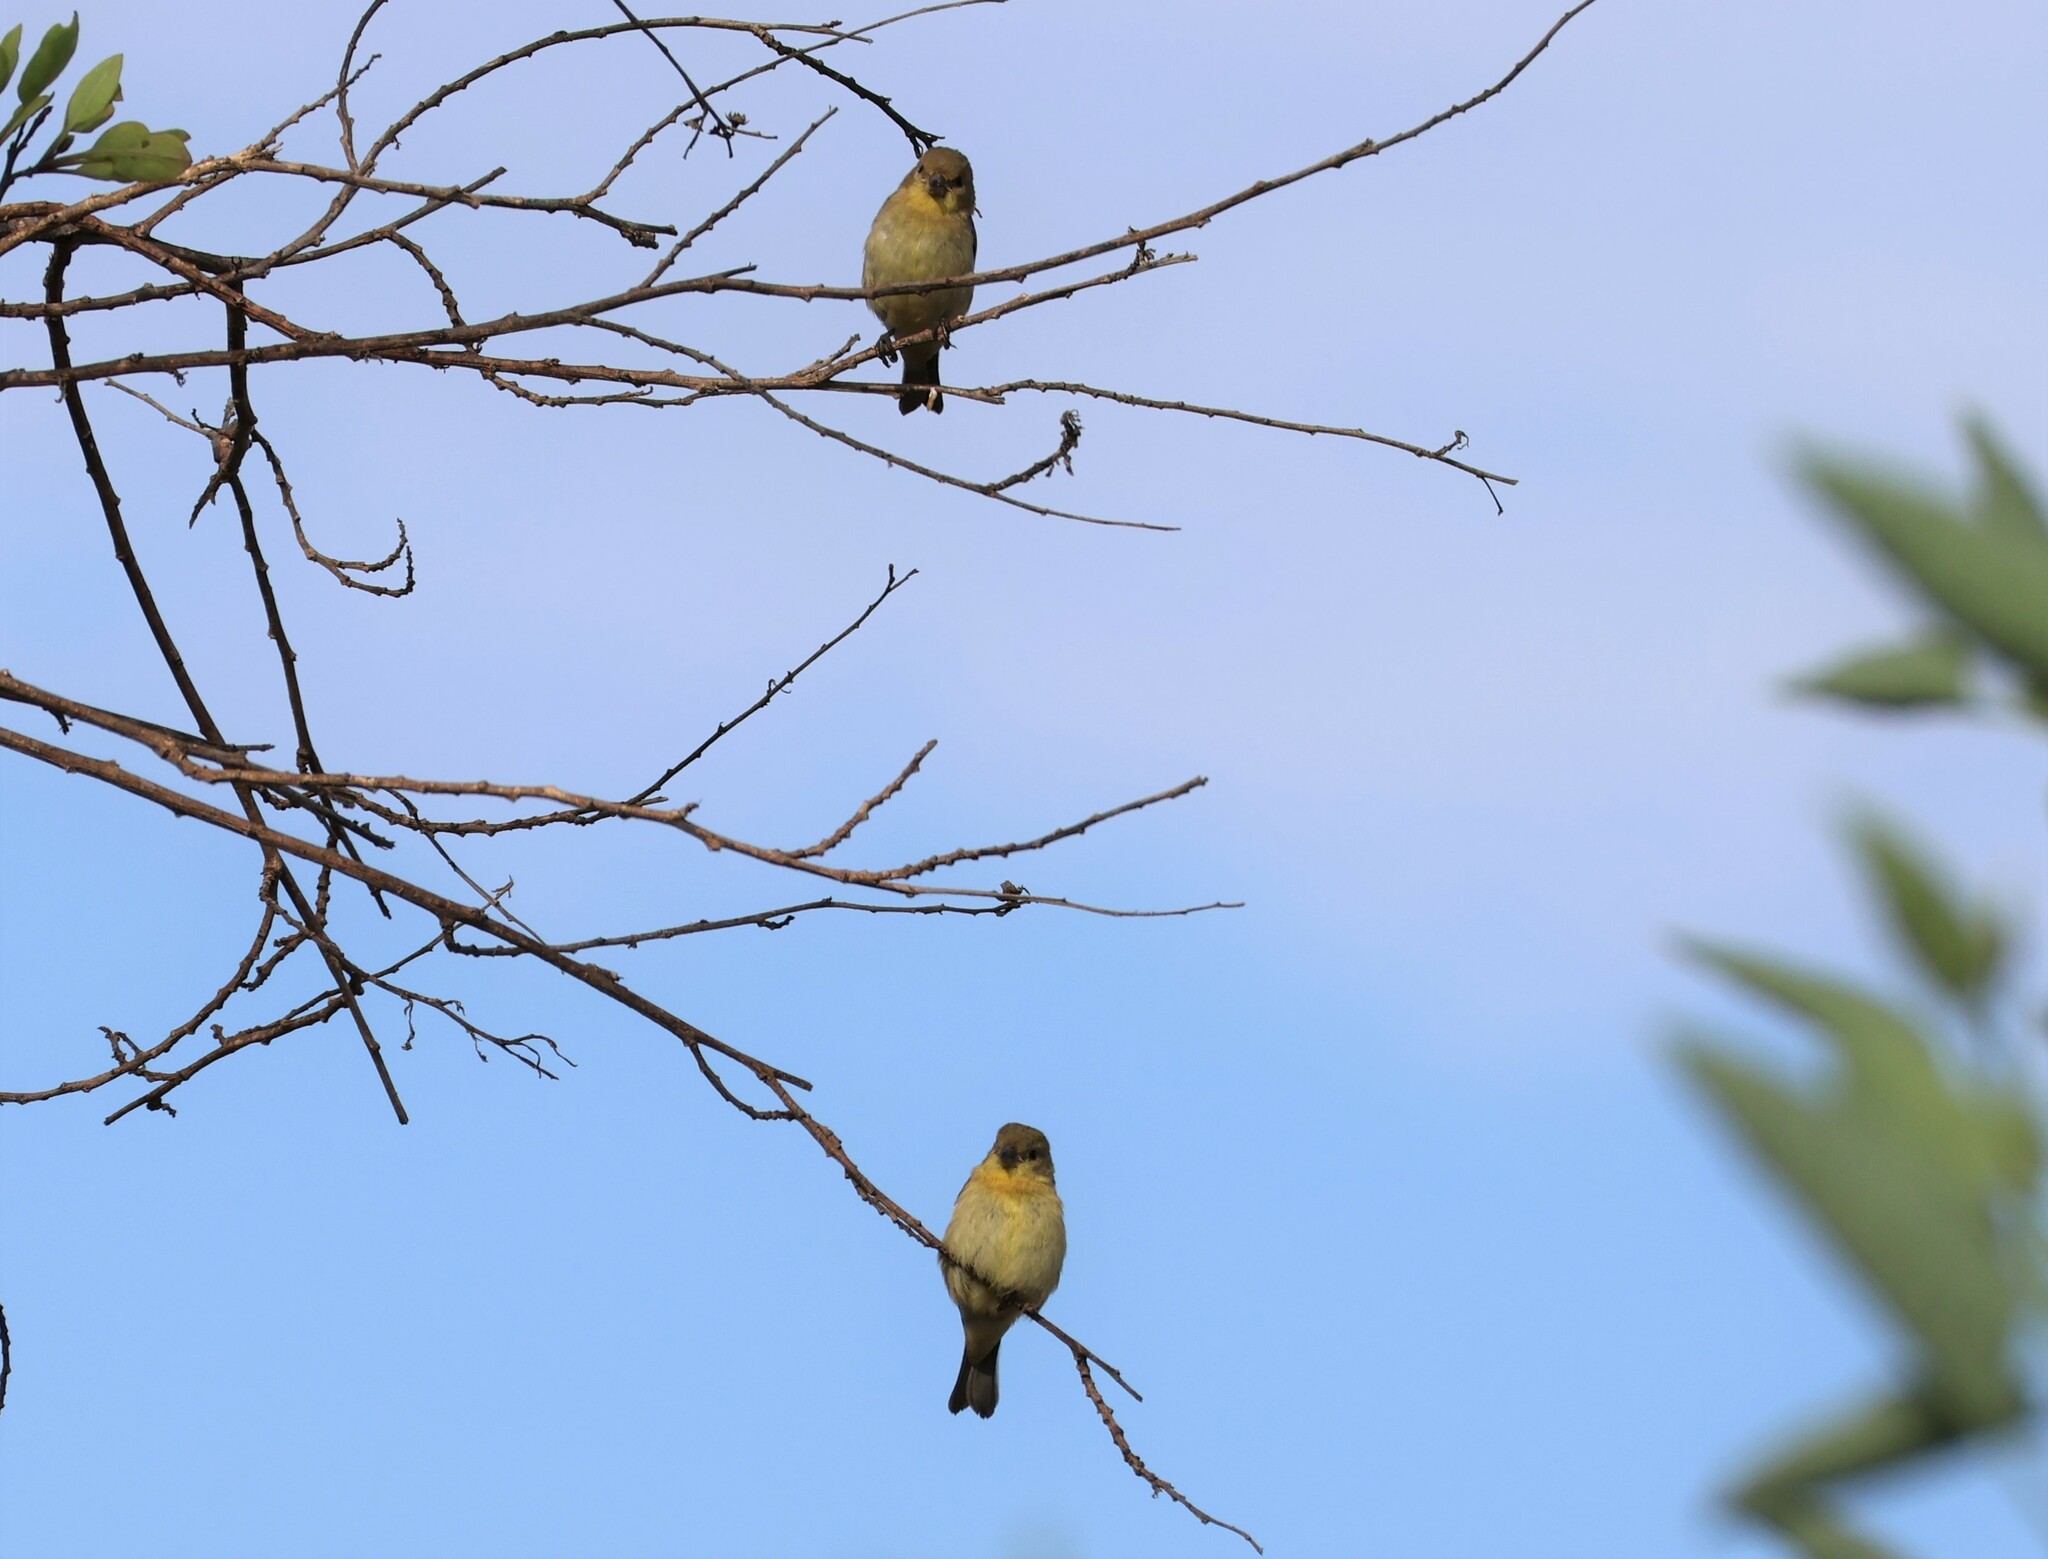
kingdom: Animalia
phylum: Chordata
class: Aves
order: Passeriformes
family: Fringillidae
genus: Spinus
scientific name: Spinus psaltria
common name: Lesser goldfinch
